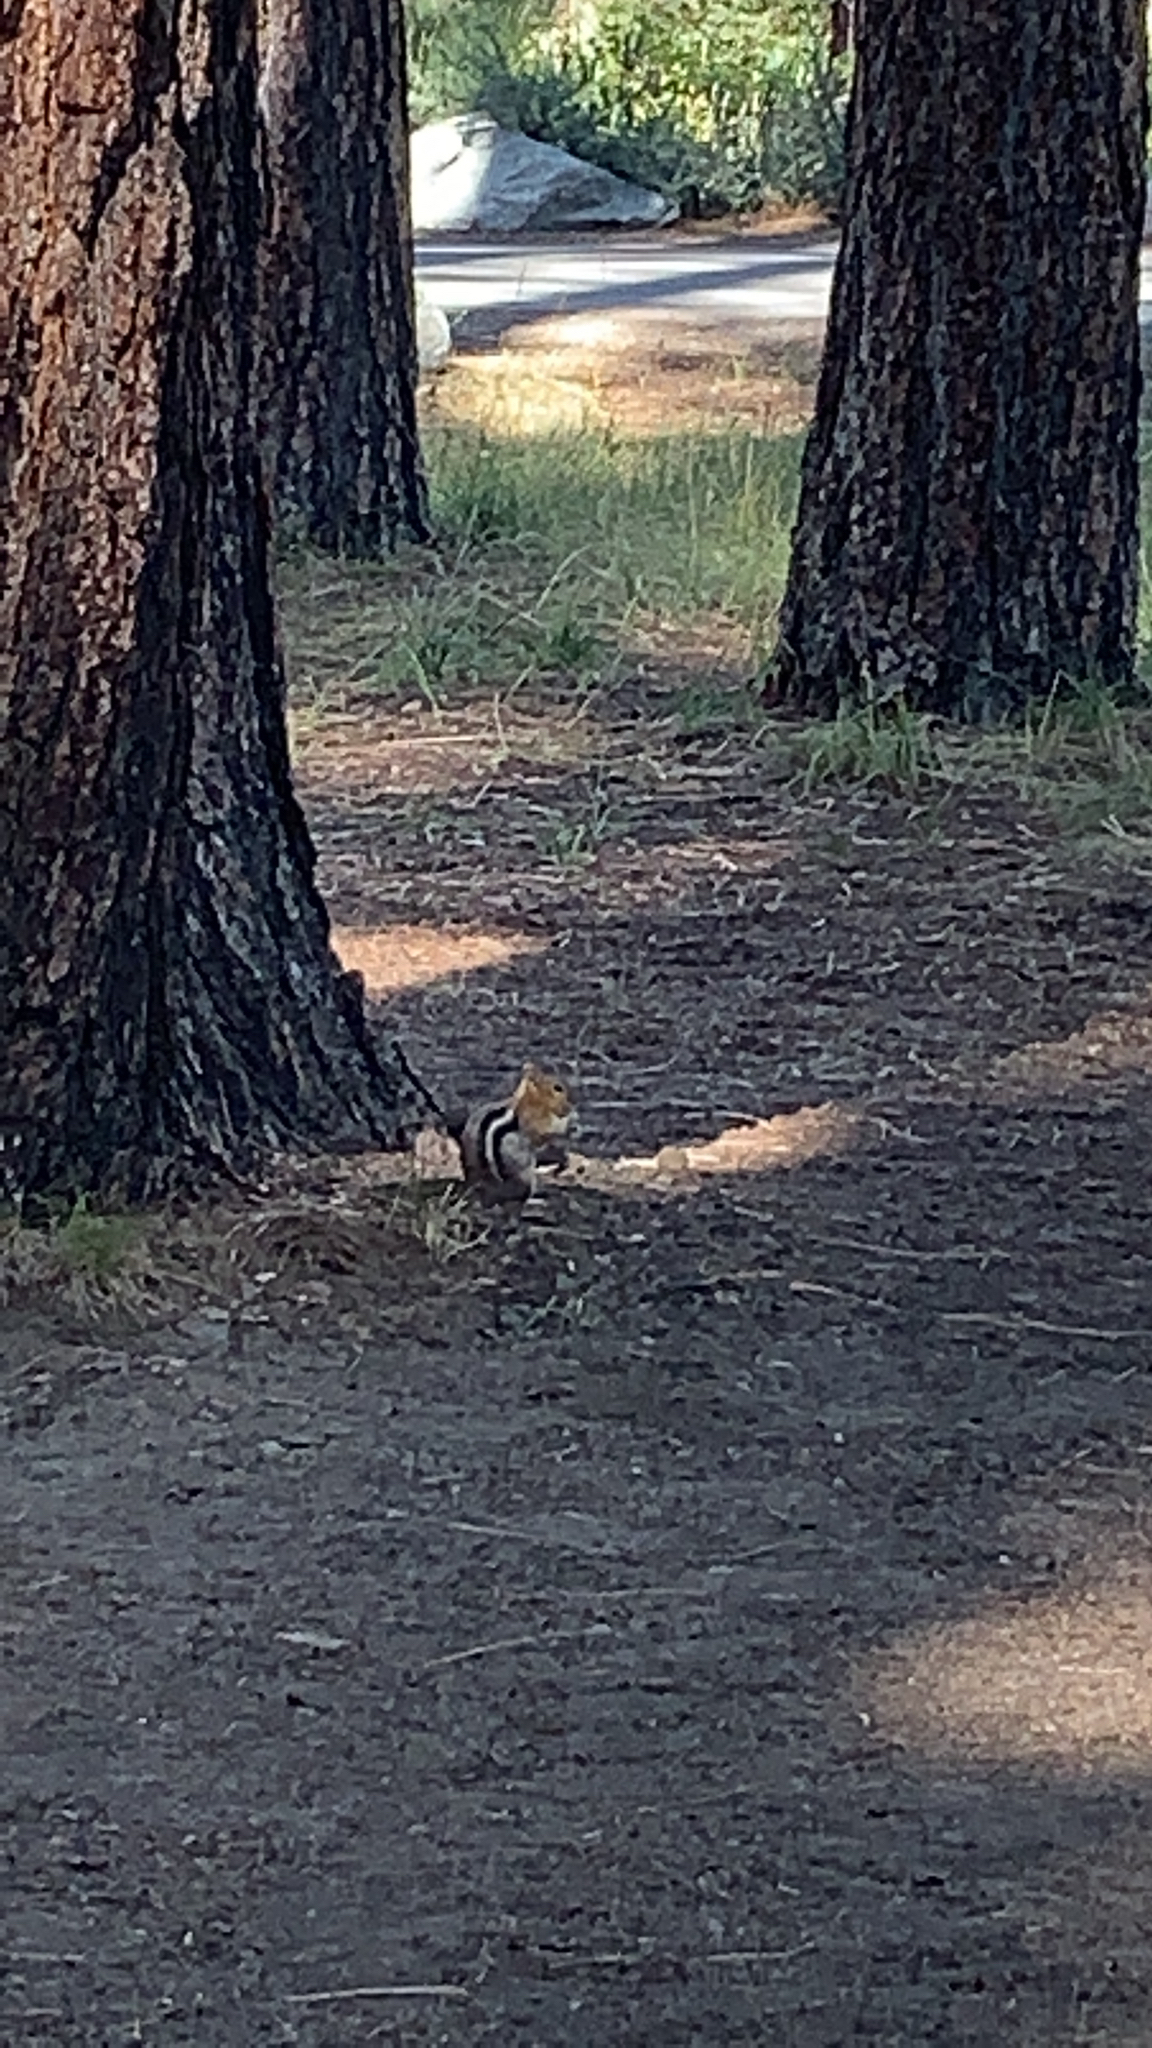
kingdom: Animalia
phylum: Chordata
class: Mammalia
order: Rodentia
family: Sciuridae
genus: Callospermophilus
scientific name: Callospermophilus lateralis
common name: Golden-mantled ground squirrel
